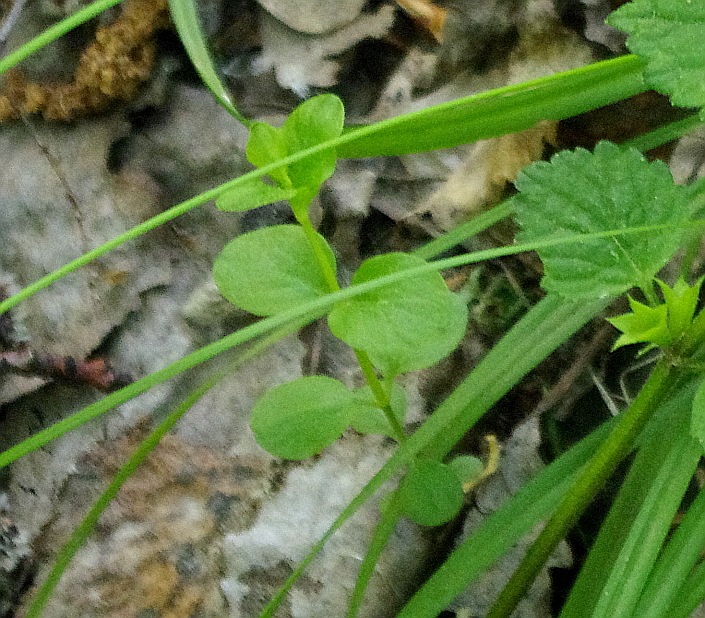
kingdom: Plantae
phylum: Tracheophyta
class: Magnoliopsida
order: Lamiales
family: Plantaginaceae
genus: Veronica
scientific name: Veronica serpyllifolia
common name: Thyme-leaved speedwell
